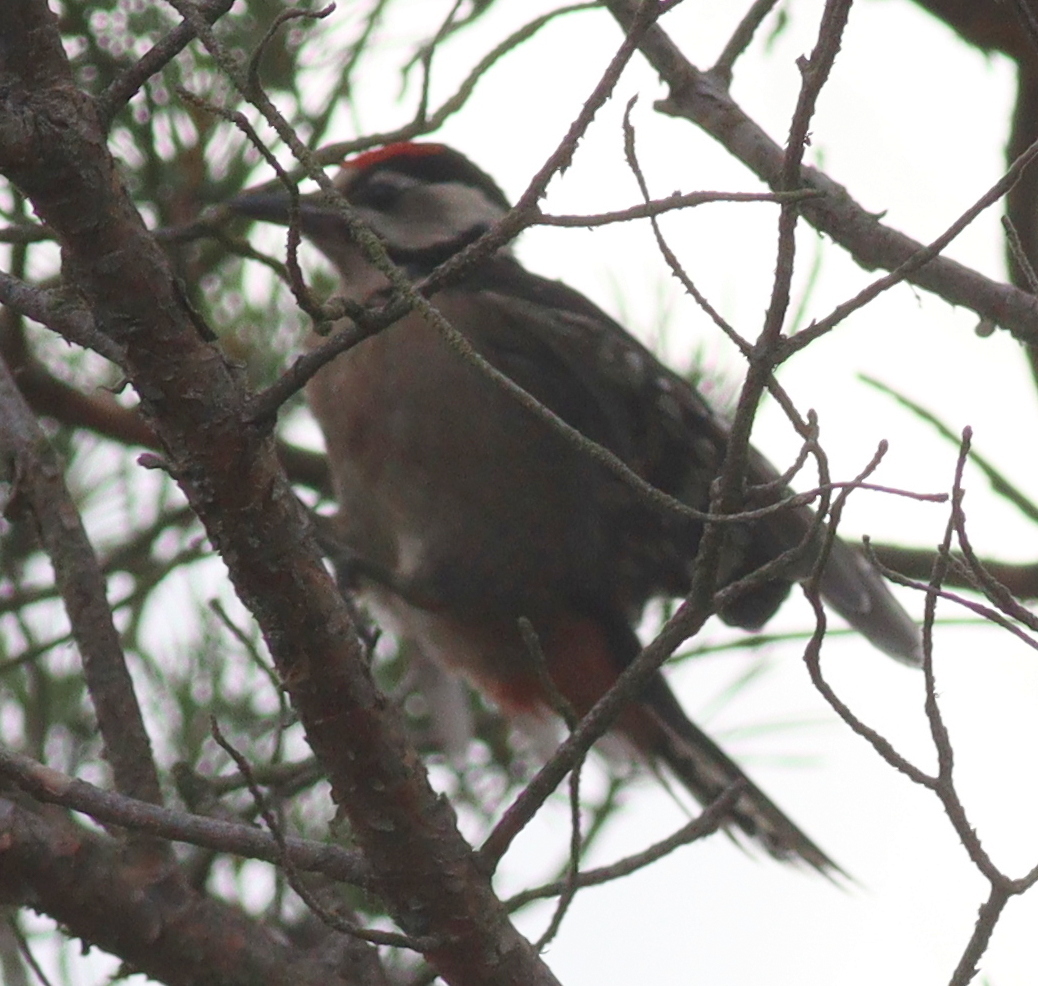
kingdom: Animalia
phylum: Chordata
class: Aves
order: Piciformes
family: Picidae
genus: Dendrocopos
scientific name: Dendrocopos major
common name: Great spotted woodpecker
